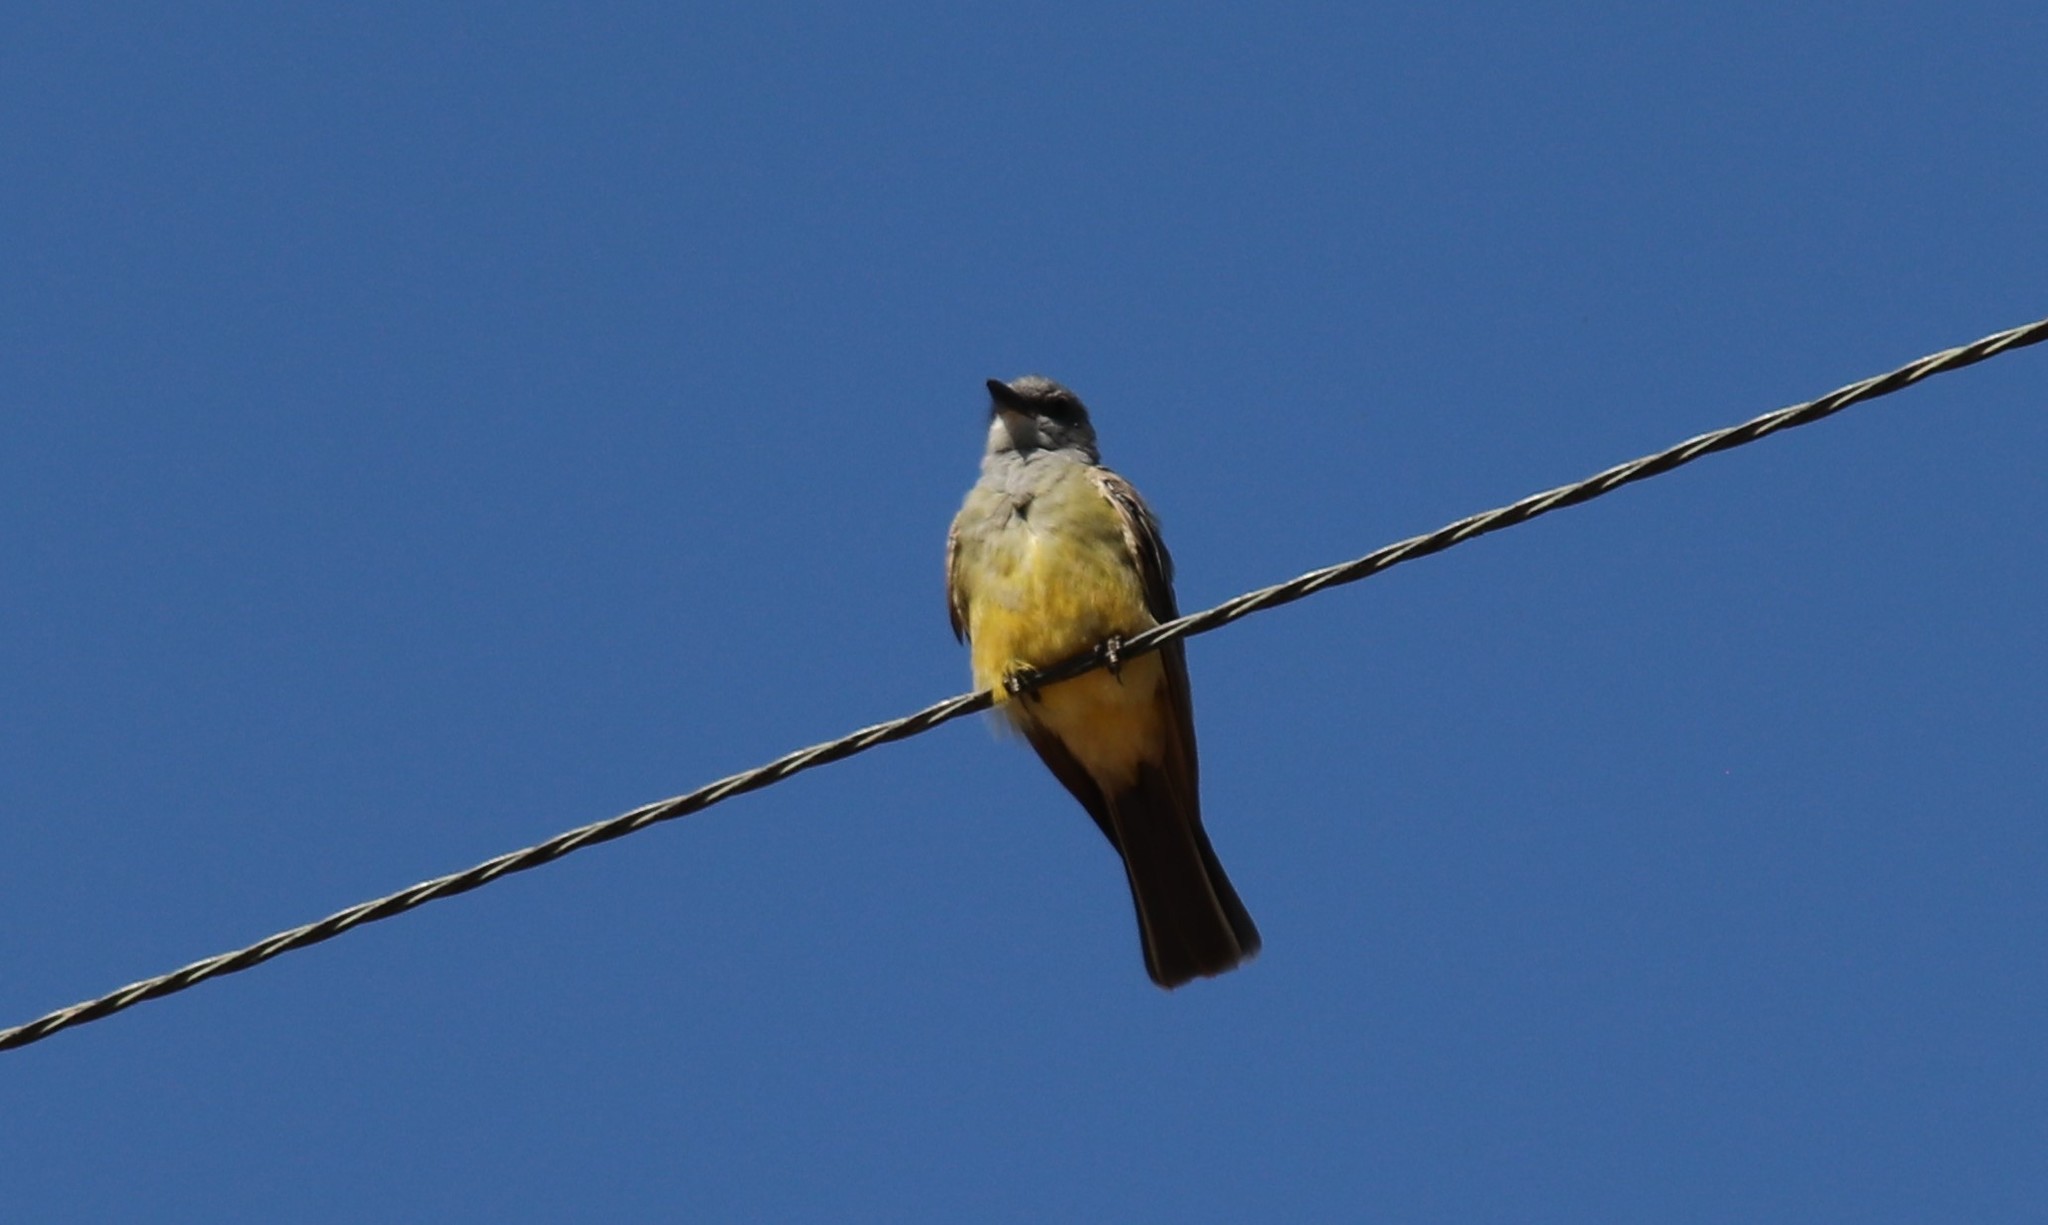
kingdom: Animalia
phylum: Chordata
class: Aves
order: Passeriformes
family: Tyrannidae
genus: Tyrannus
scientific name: Tyrannus vociferans
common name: Cassin's kingbird
